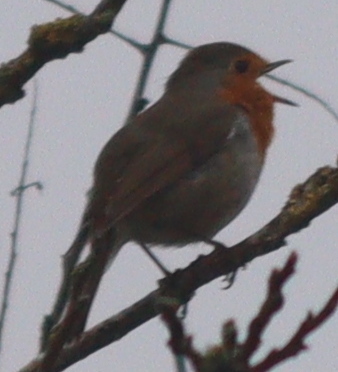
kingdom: Animalia
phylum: Chordata
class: Aves
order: Passeriformes
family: Muscicapidae
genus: Erithacus
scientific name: Erithacus rubecula
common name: European robin
